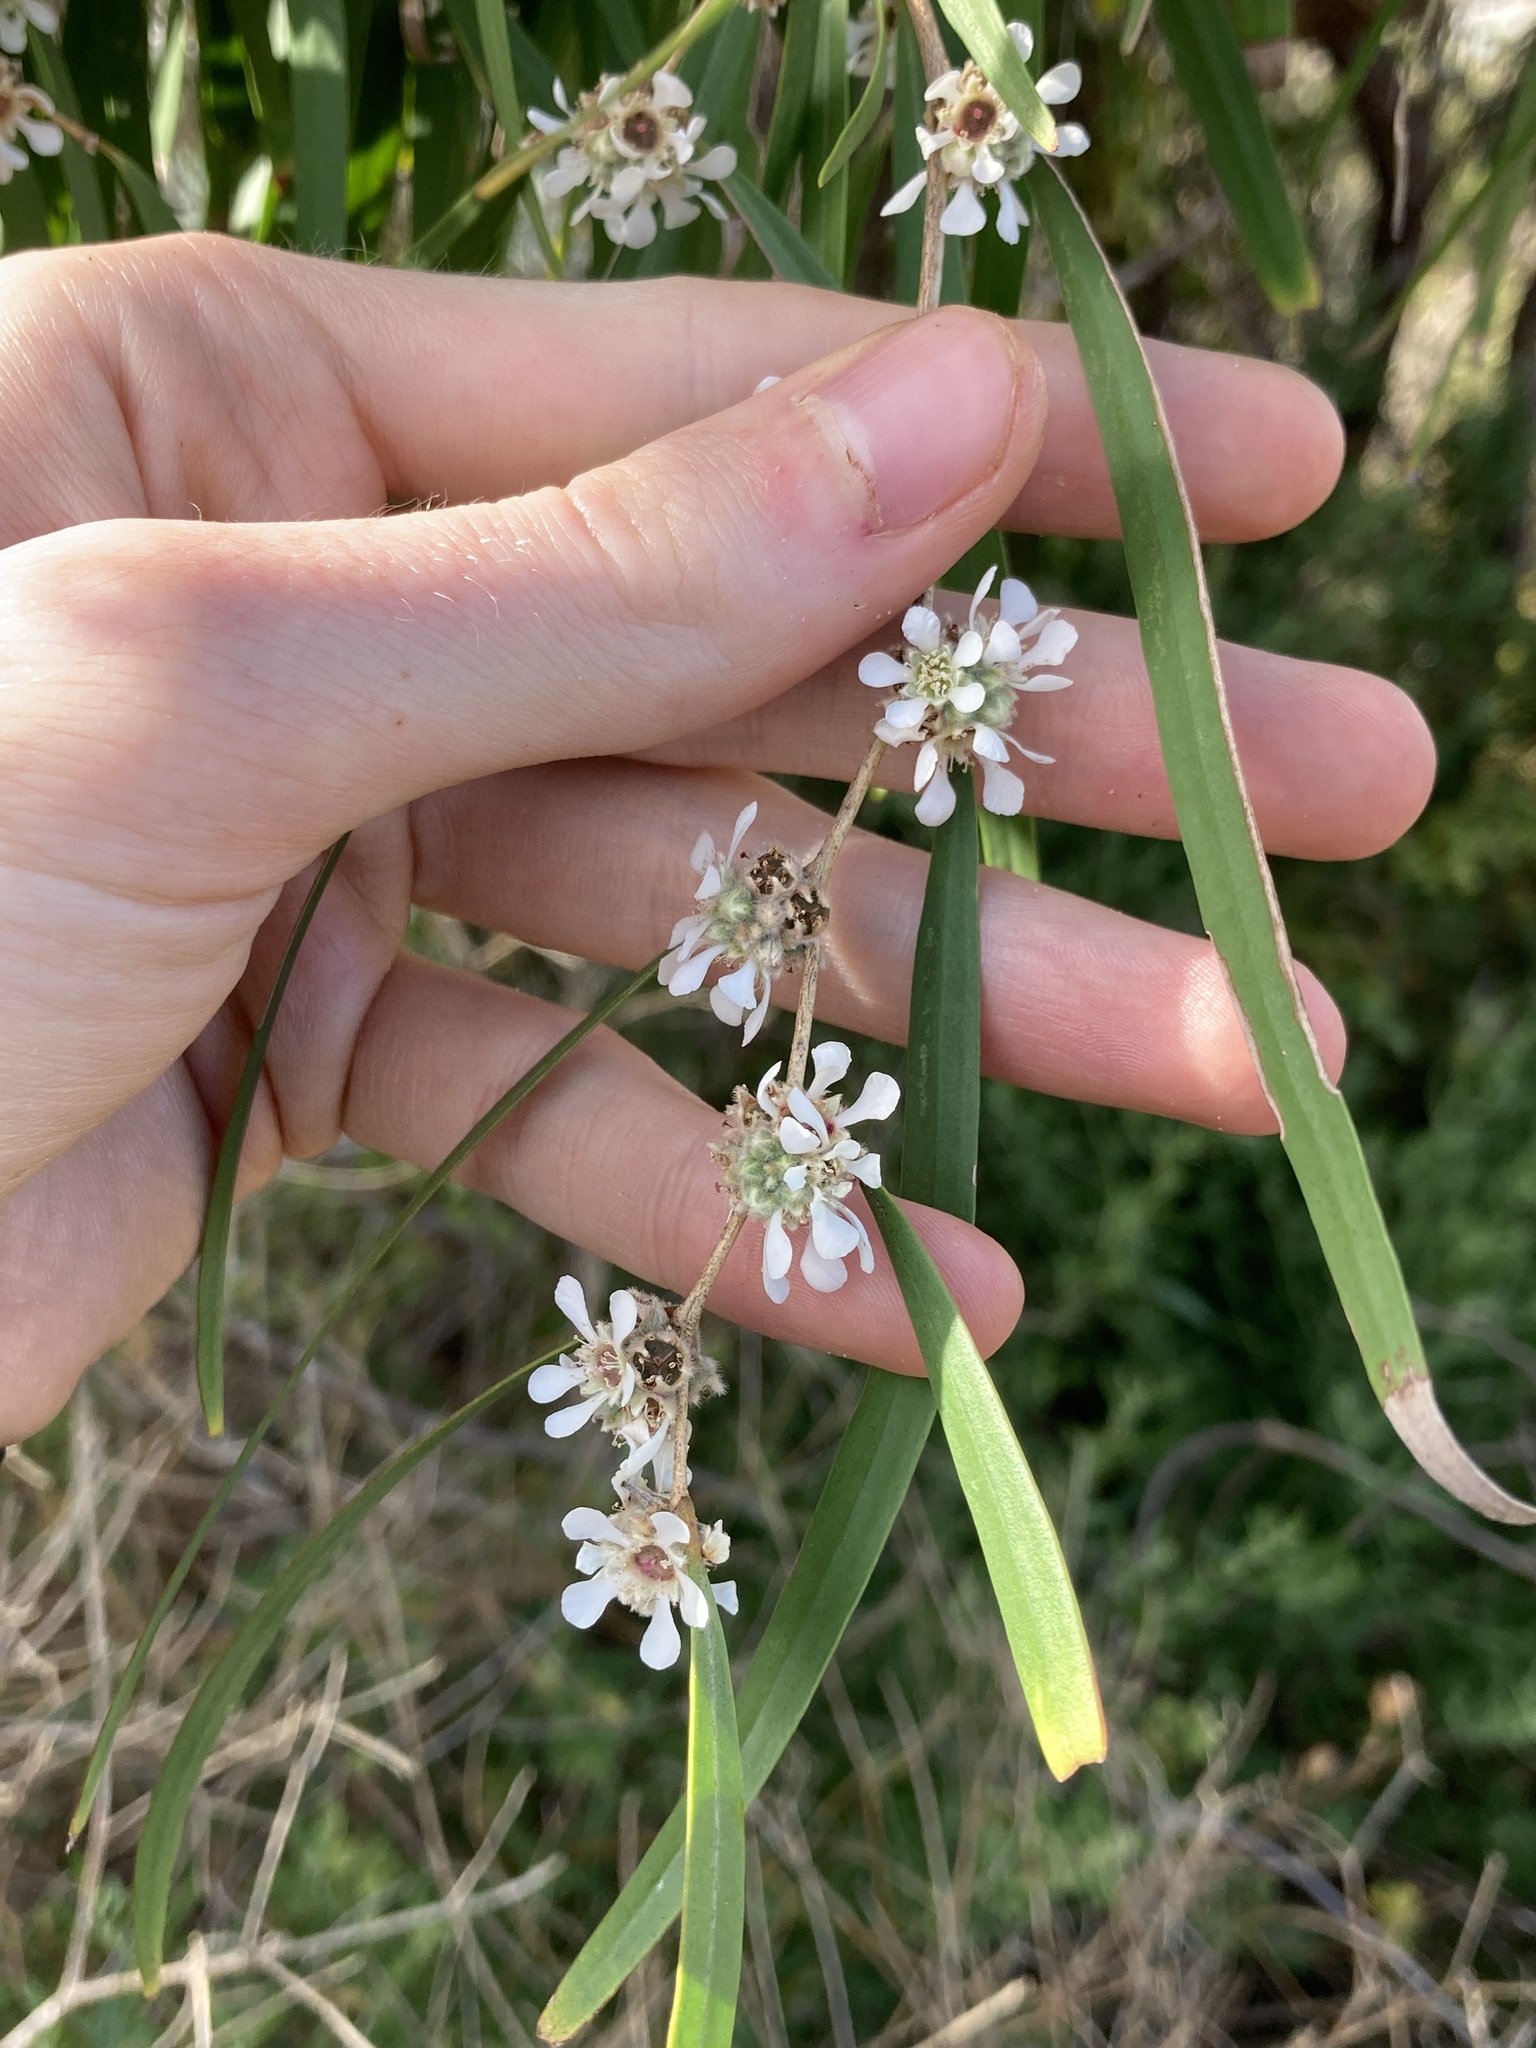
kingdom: Plantae
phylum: Tracheophyta
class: Magnoliopsida
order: Myrtales
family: Myrtaceae
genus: Agonis
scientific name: Agonis flexuosa
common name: Willow myrtle
